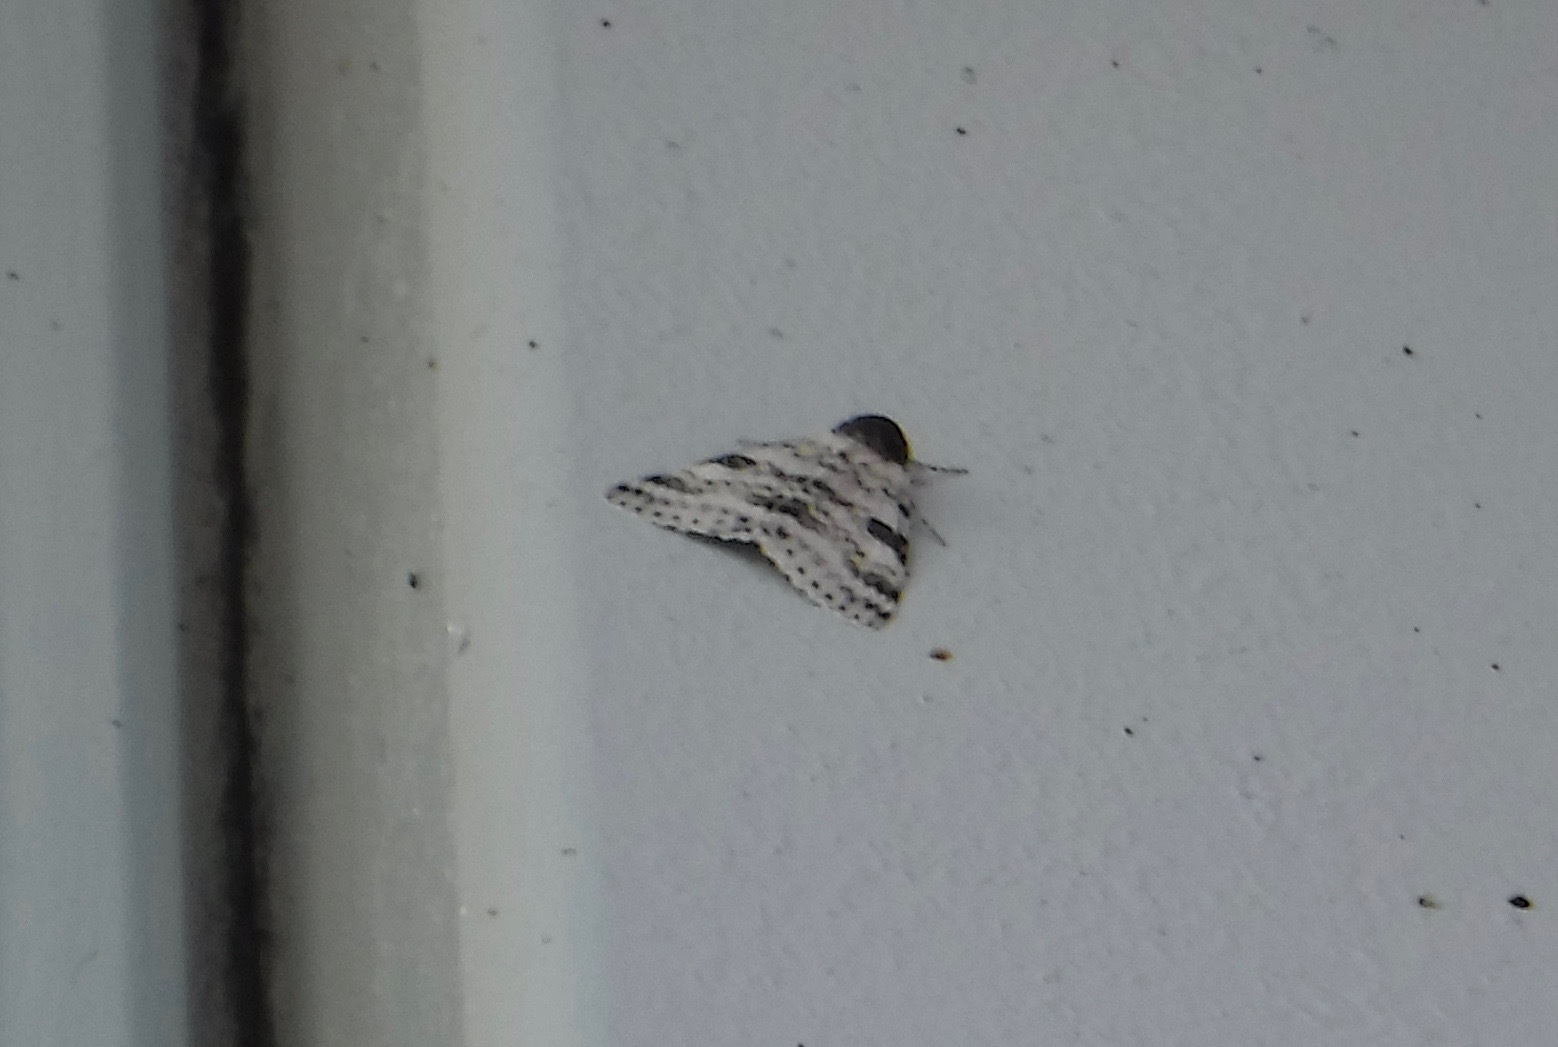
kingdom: Animalia
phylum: Arthropoda
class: Insecta
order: Lepidoptera
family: Erebidae
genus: Catocala
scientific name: Catocala relicta
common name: White underwing
